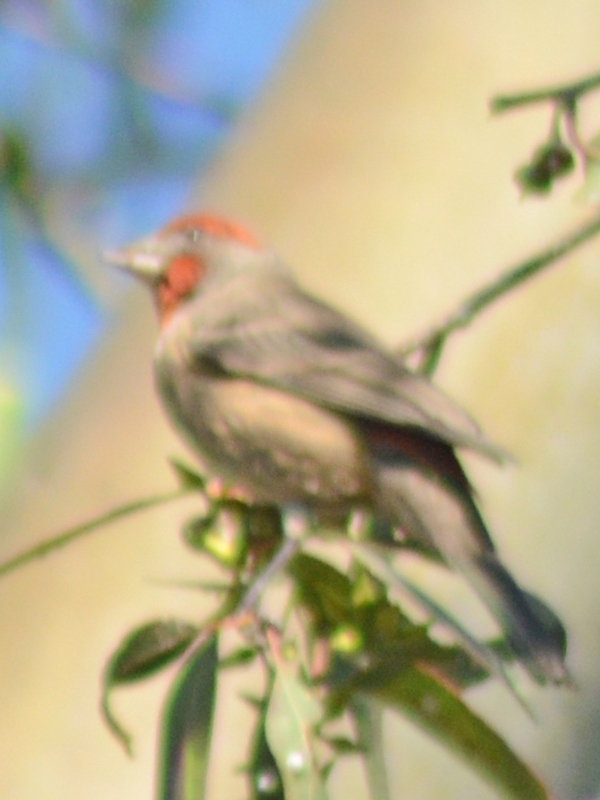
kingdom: Animalia
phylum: Chordata
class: Aves
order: Passeriformes
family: Fringillidae
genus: Haemorhous
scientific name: Haemorhous mexicanus
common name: House finch
